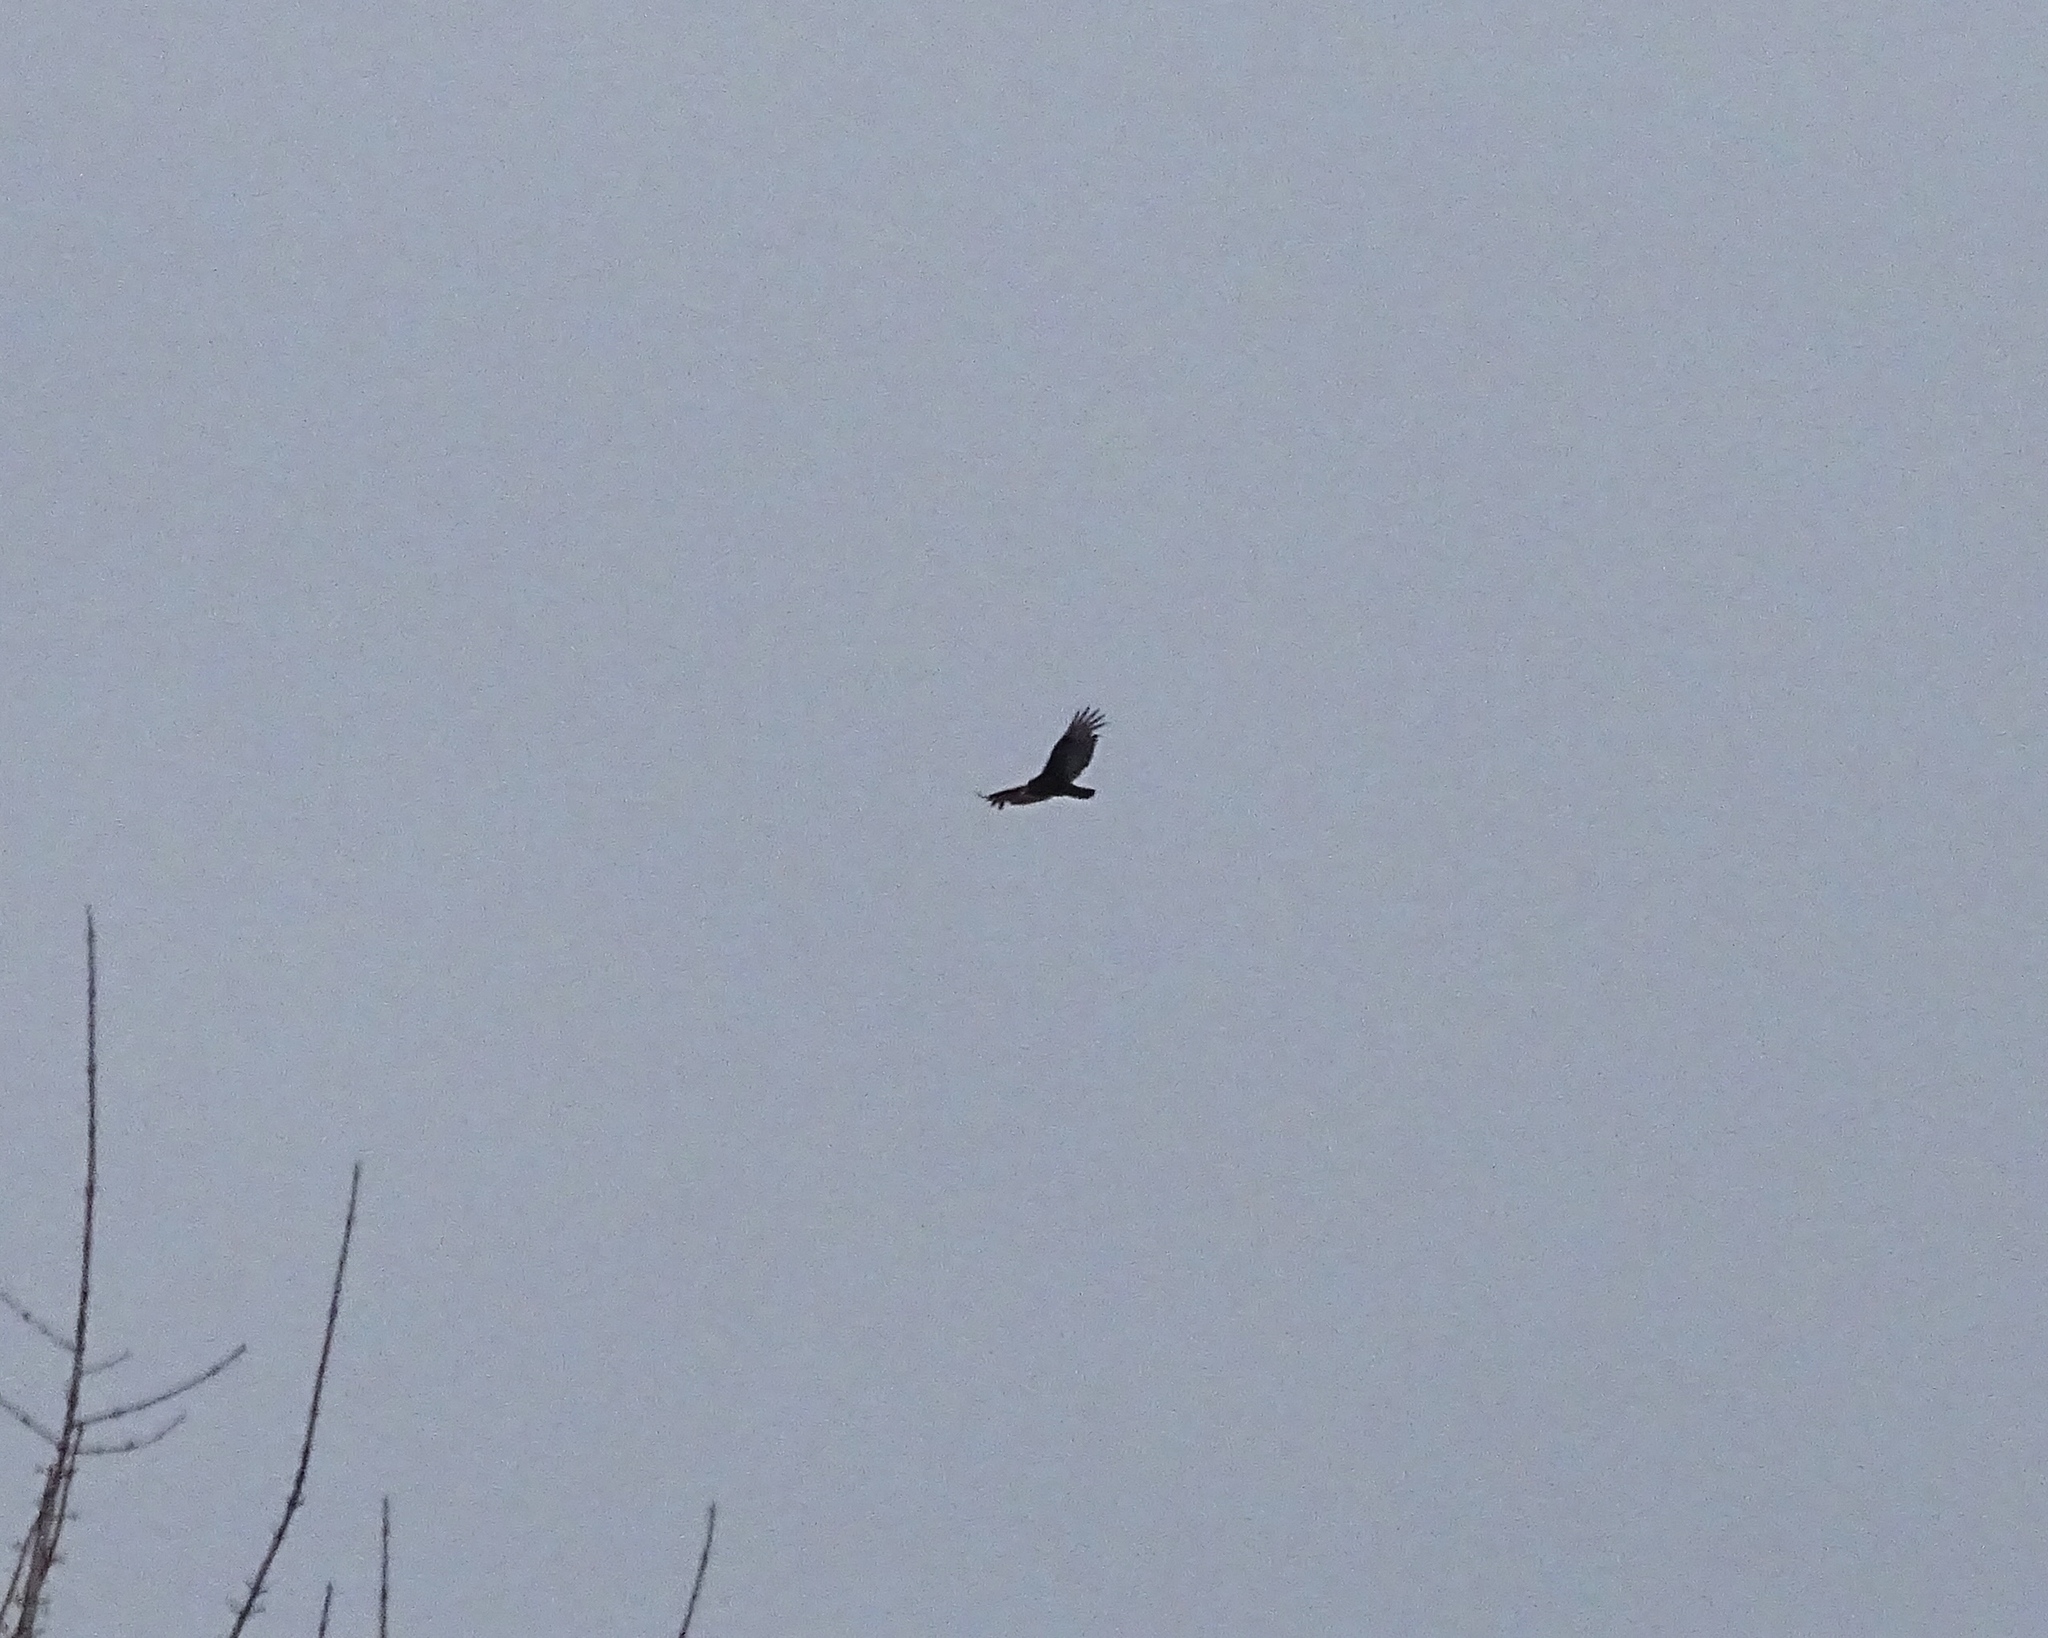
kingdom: Animalia
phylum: Chordata
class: Aves
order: Accipitriformes
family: Cathartidae
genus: Cathartes
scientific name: Cathartes aura
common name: Turkey vulture
